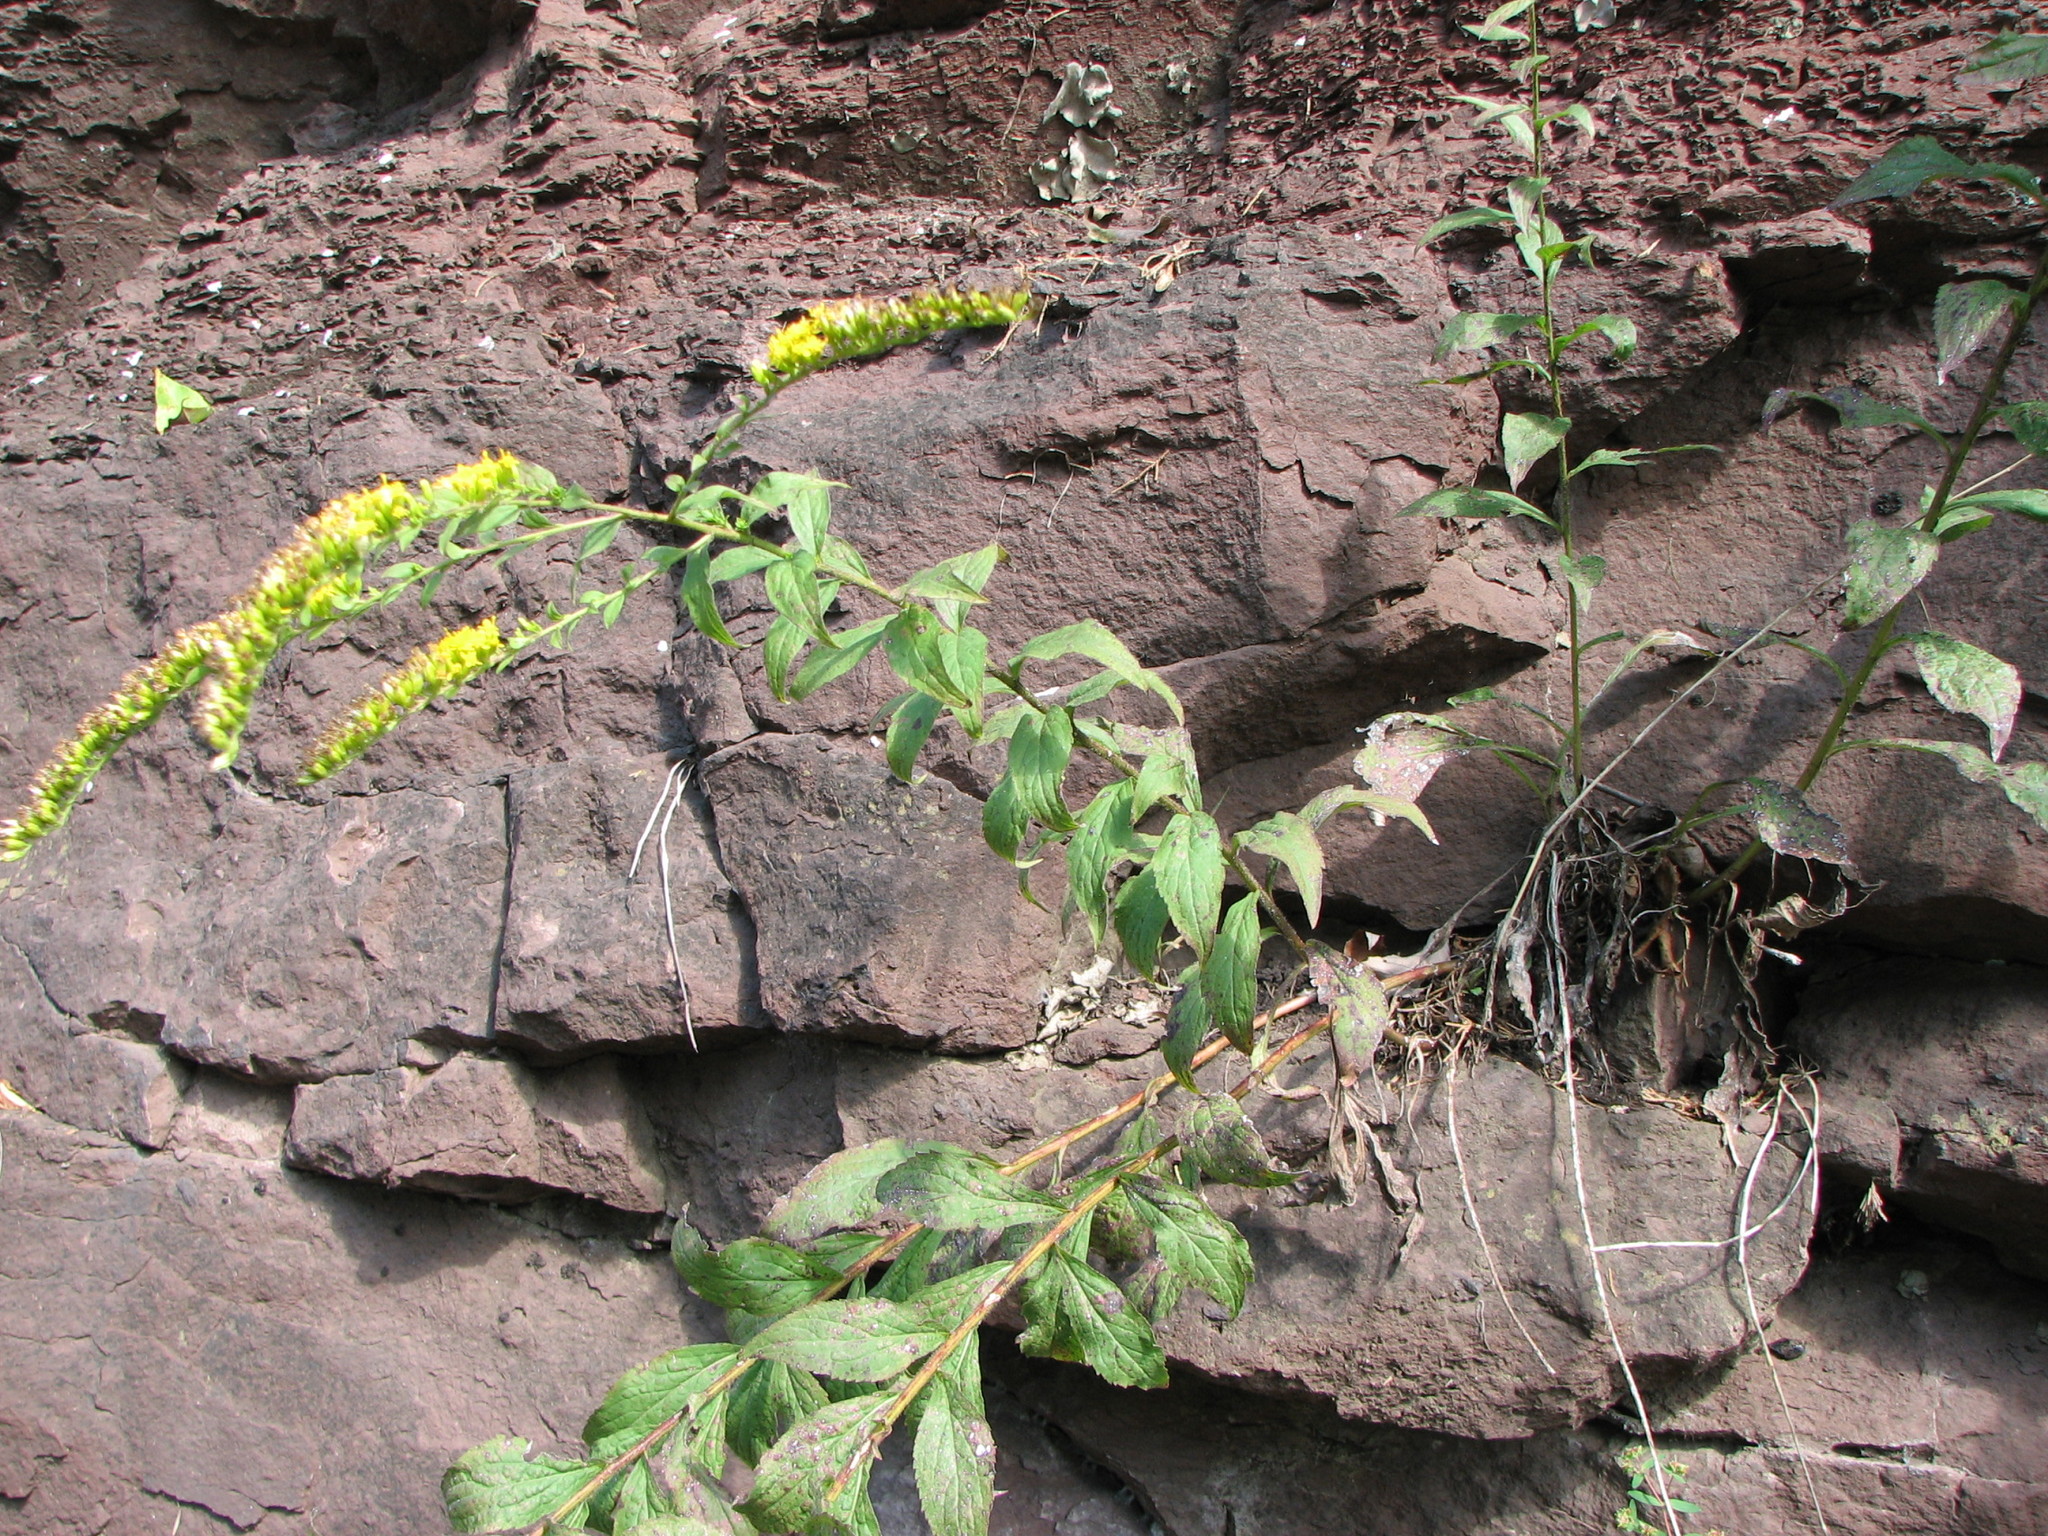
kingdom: Plantae
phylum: Tracheophyta
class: Magnoliopsida
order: Asterales
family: Asteraceae
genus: Solidago
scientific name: Solidago rugosa
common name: Rough-stemmed goldenrod
